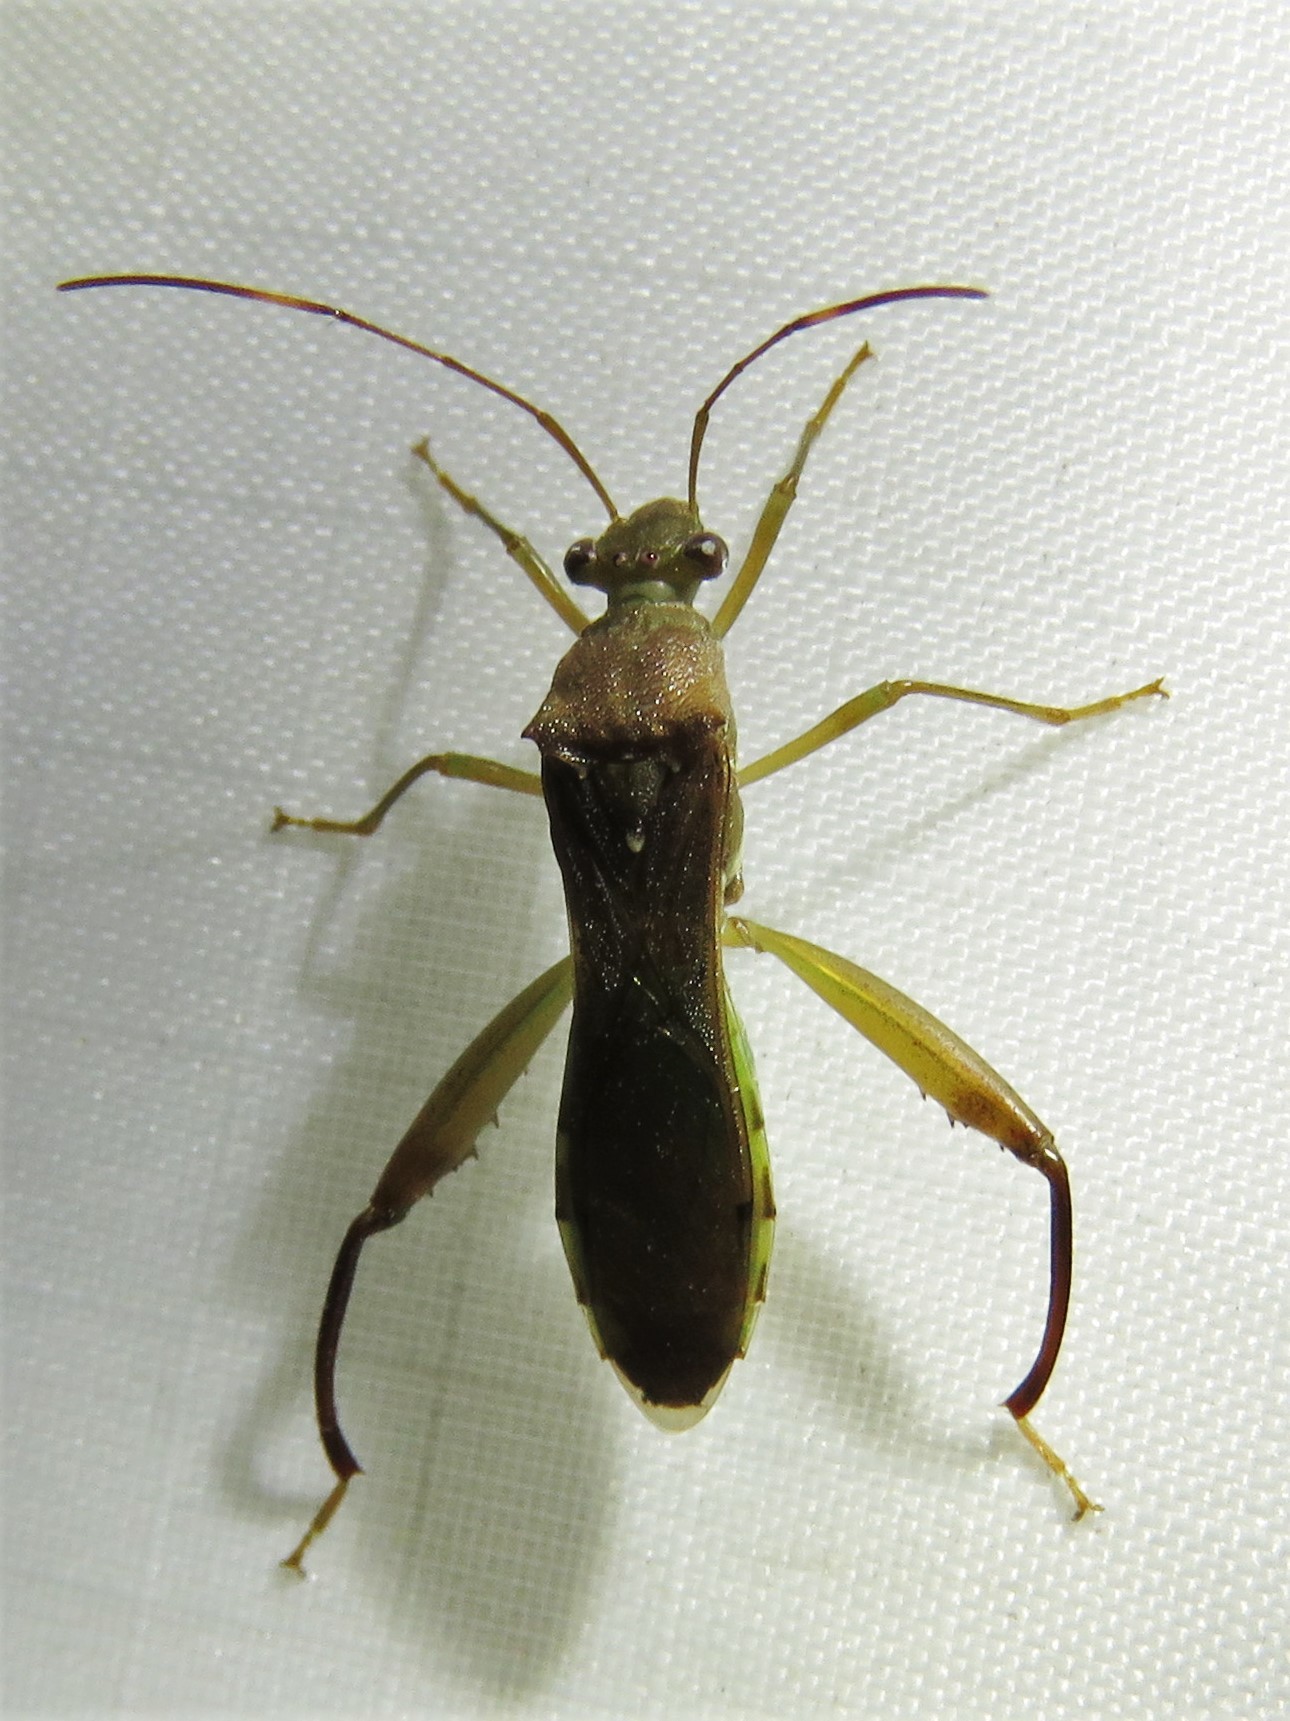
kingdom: Animalia
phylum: Arthropoda
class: Insecta
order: Hemiptera
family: Alydidae
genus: Hyalymenus
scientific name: Hyalymenus tarsatus
